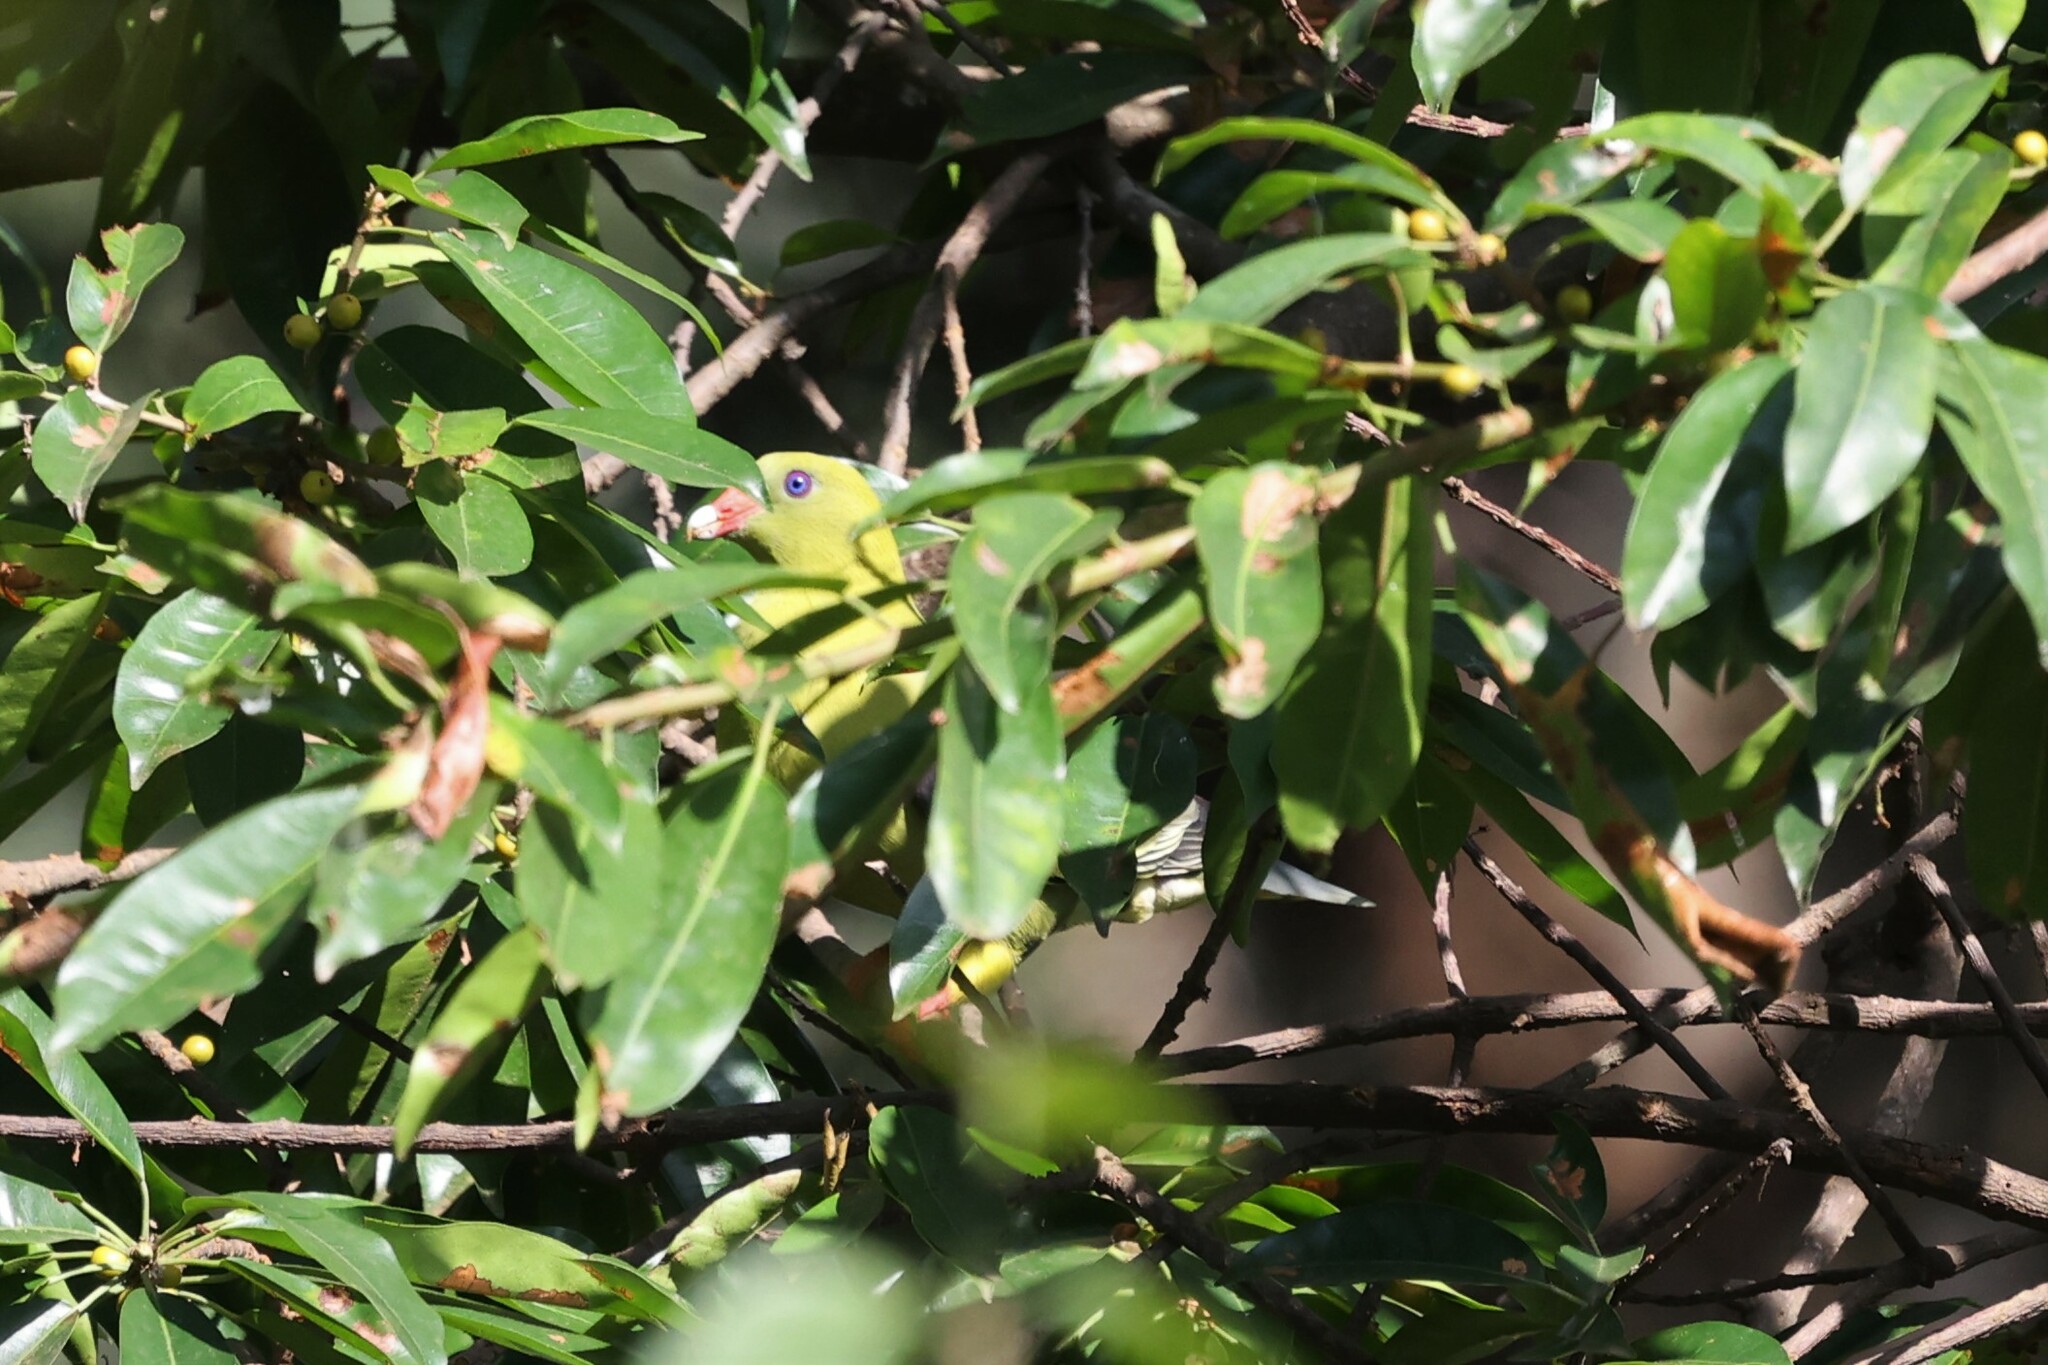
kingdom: Animalia
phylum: Chordata
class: Aves
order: Columbiformes
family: Columbidae
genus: Treron
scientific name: Treron calvus
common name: African green pigeon
